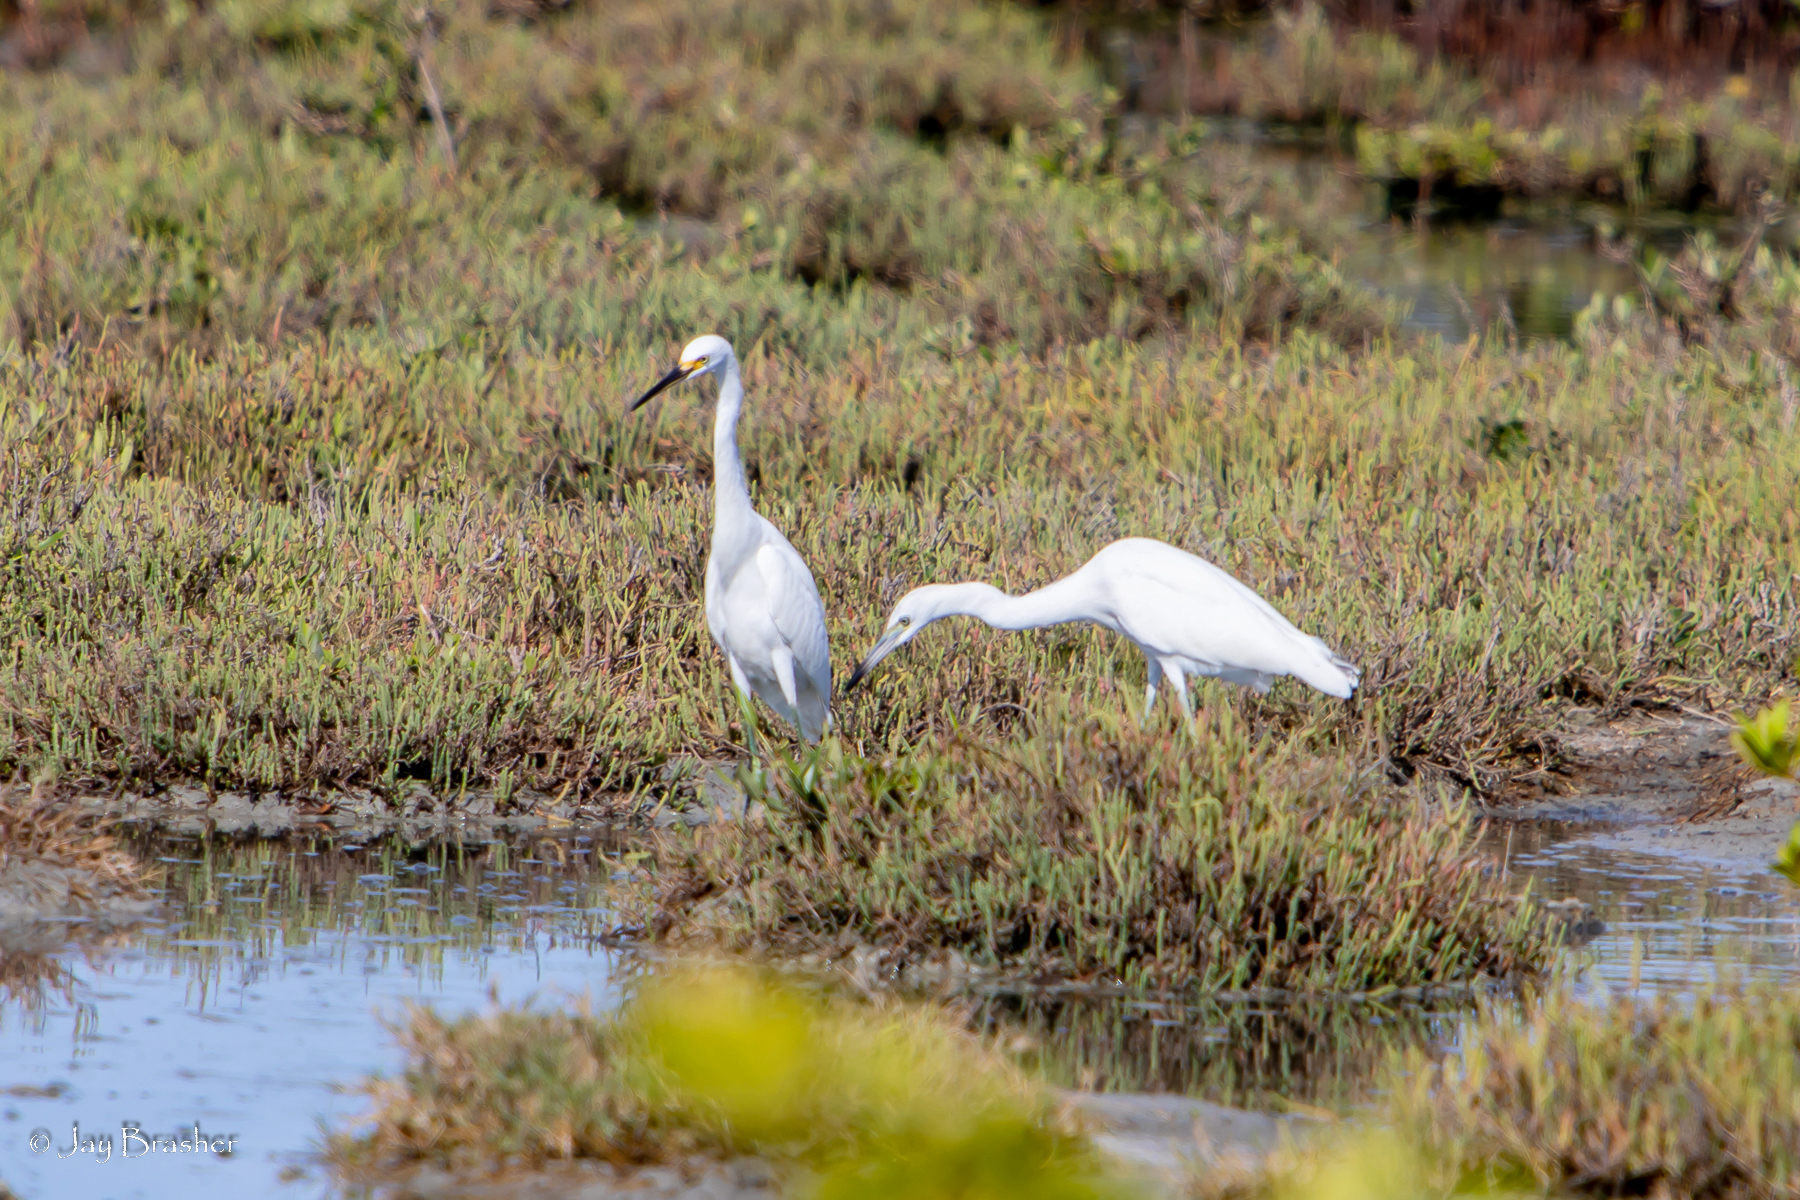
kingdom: Animalia
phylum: Chordata
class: Aves
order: Pelecaniformes
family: Ardeidae
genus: Egretta
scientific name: Egretta caerulea
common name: Little blue heron
